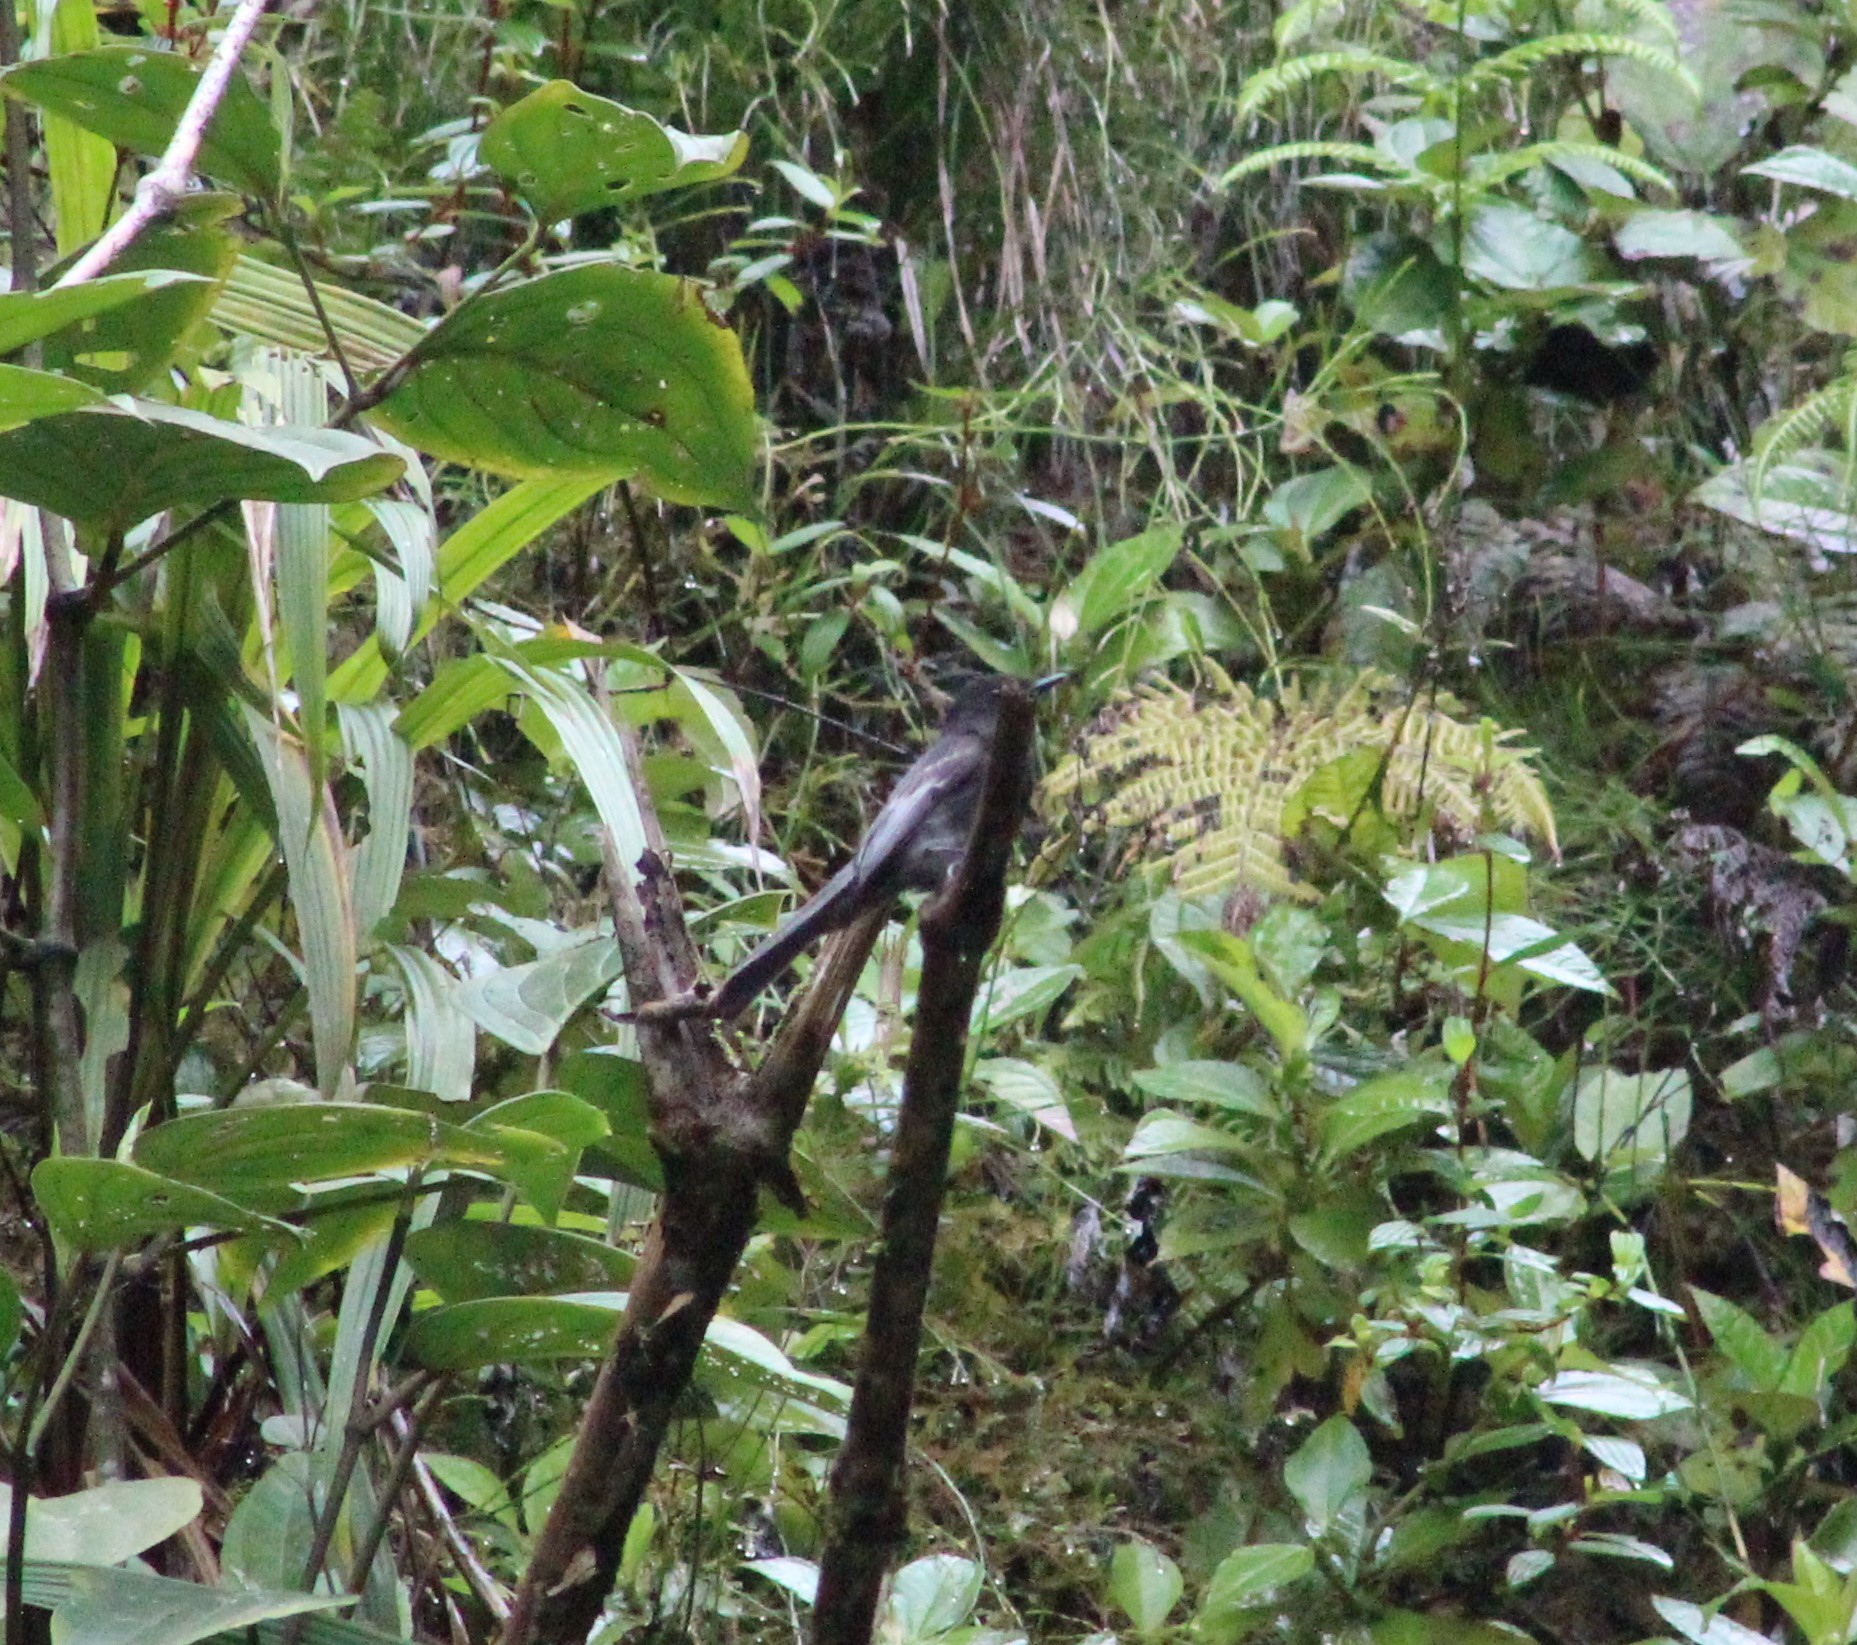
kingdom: Animalia
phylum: Chordata
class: Aves
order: Passeriformes
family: Tyrannidae
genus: Sayornis
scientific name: Sayornis nigricans
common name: Black phoebe
